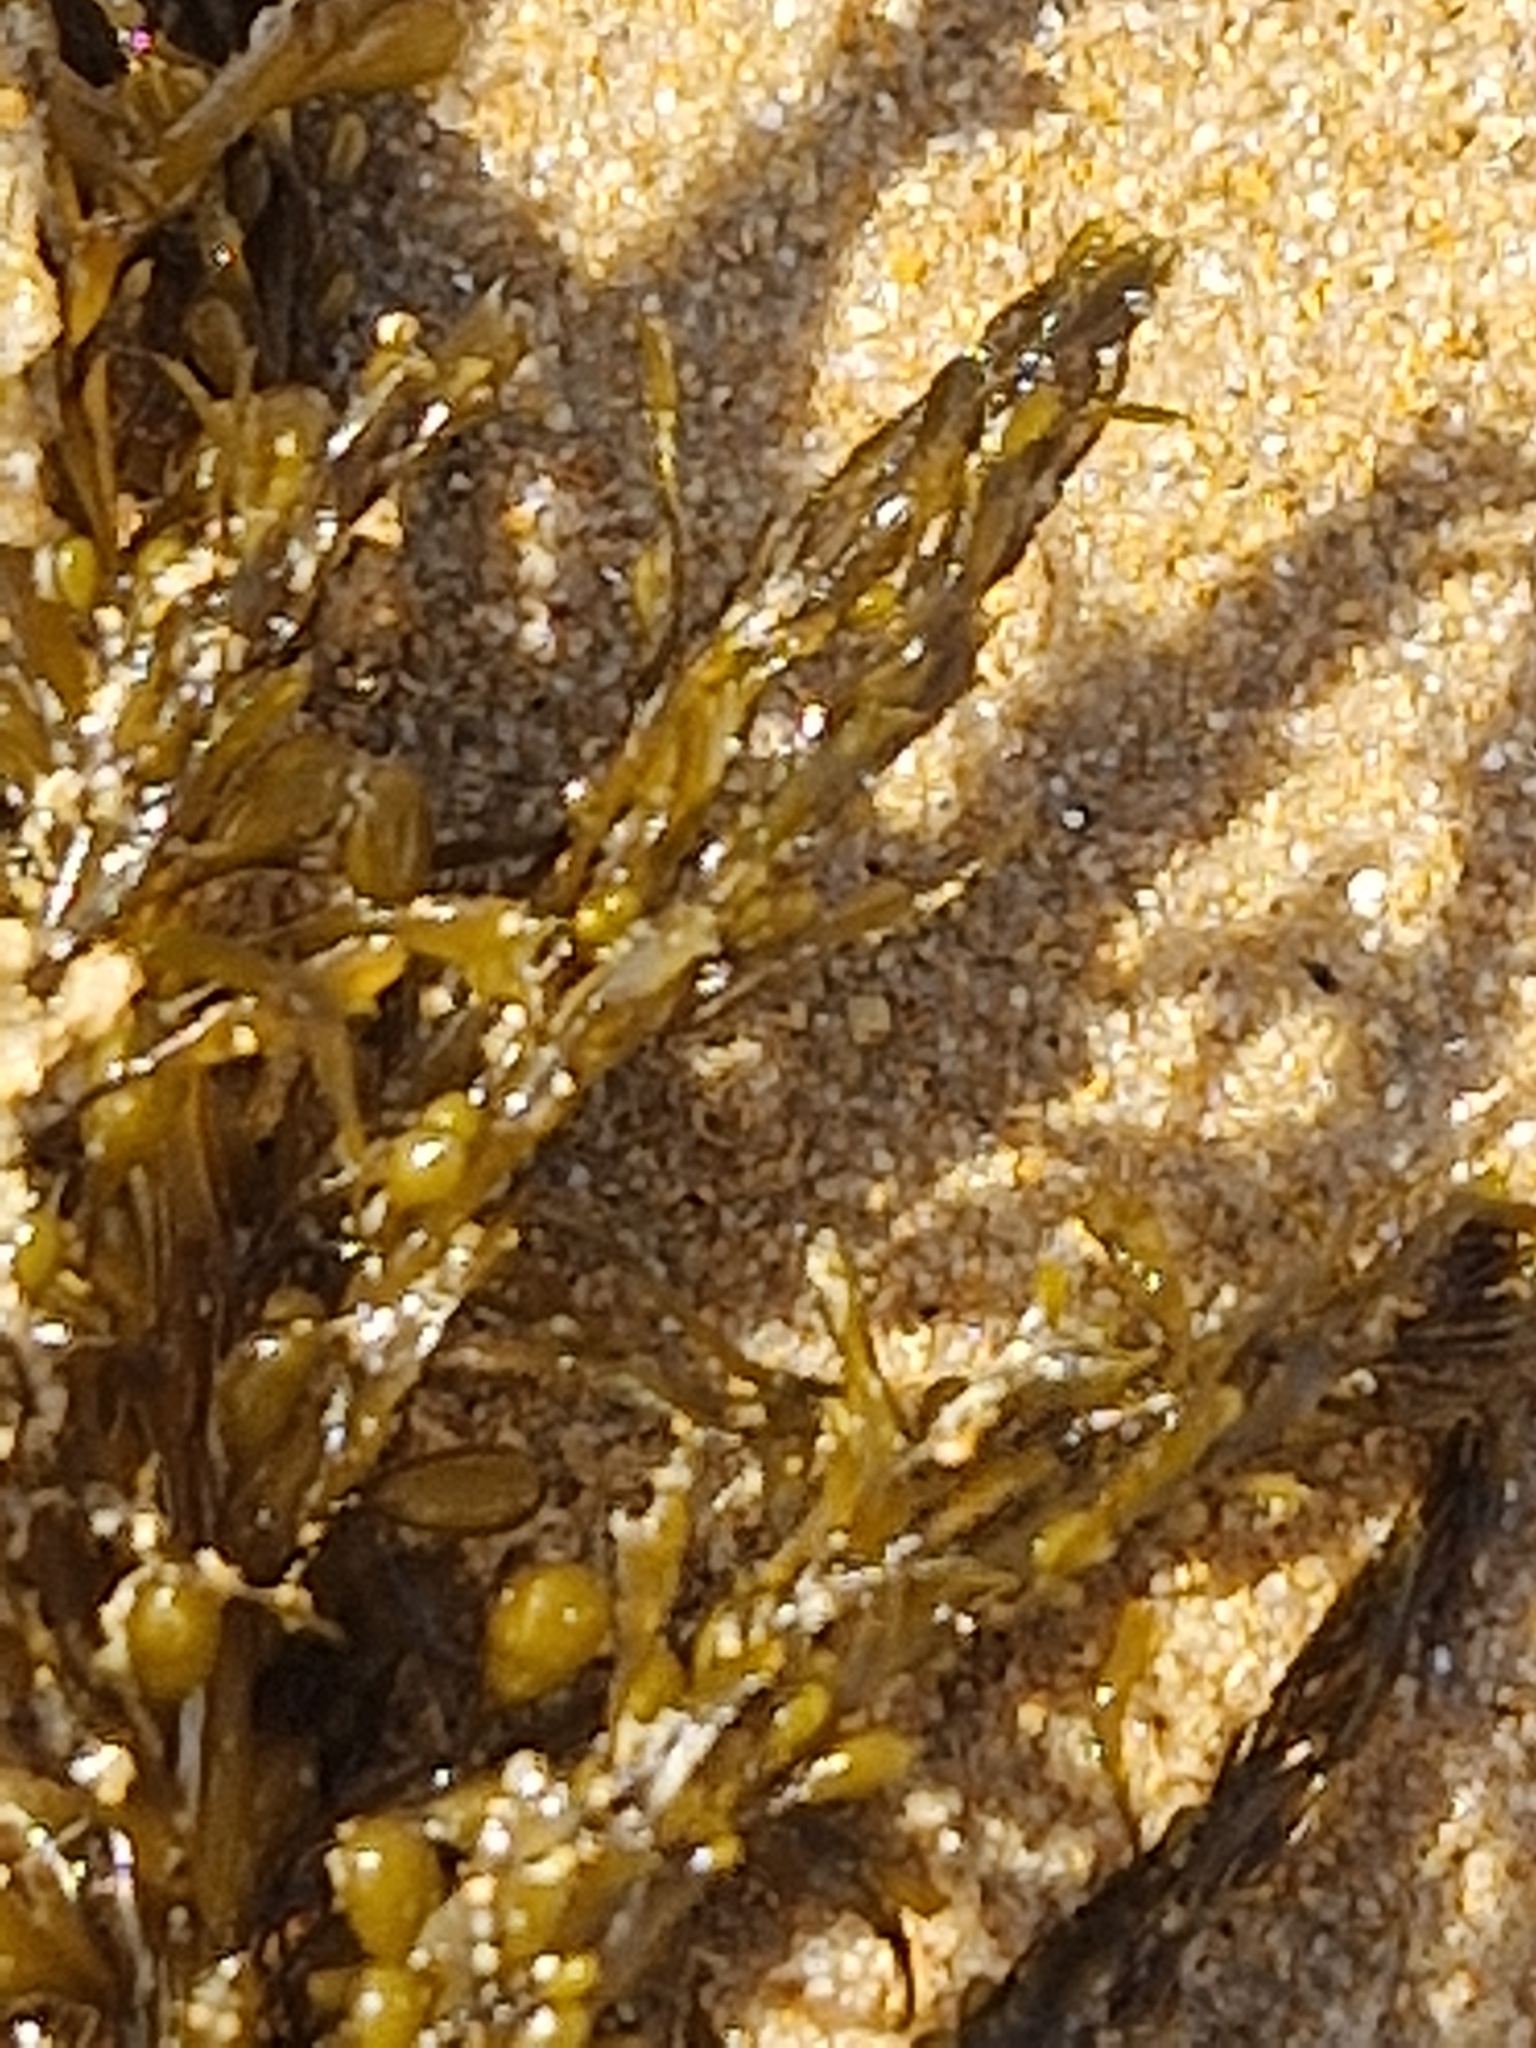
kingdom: Chromista
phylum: Ochrophyta
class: Phaeophyceae
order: Fucales
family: Sargassaceae
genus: Sargassum
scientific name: Sargassum muticum
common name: Japweed
